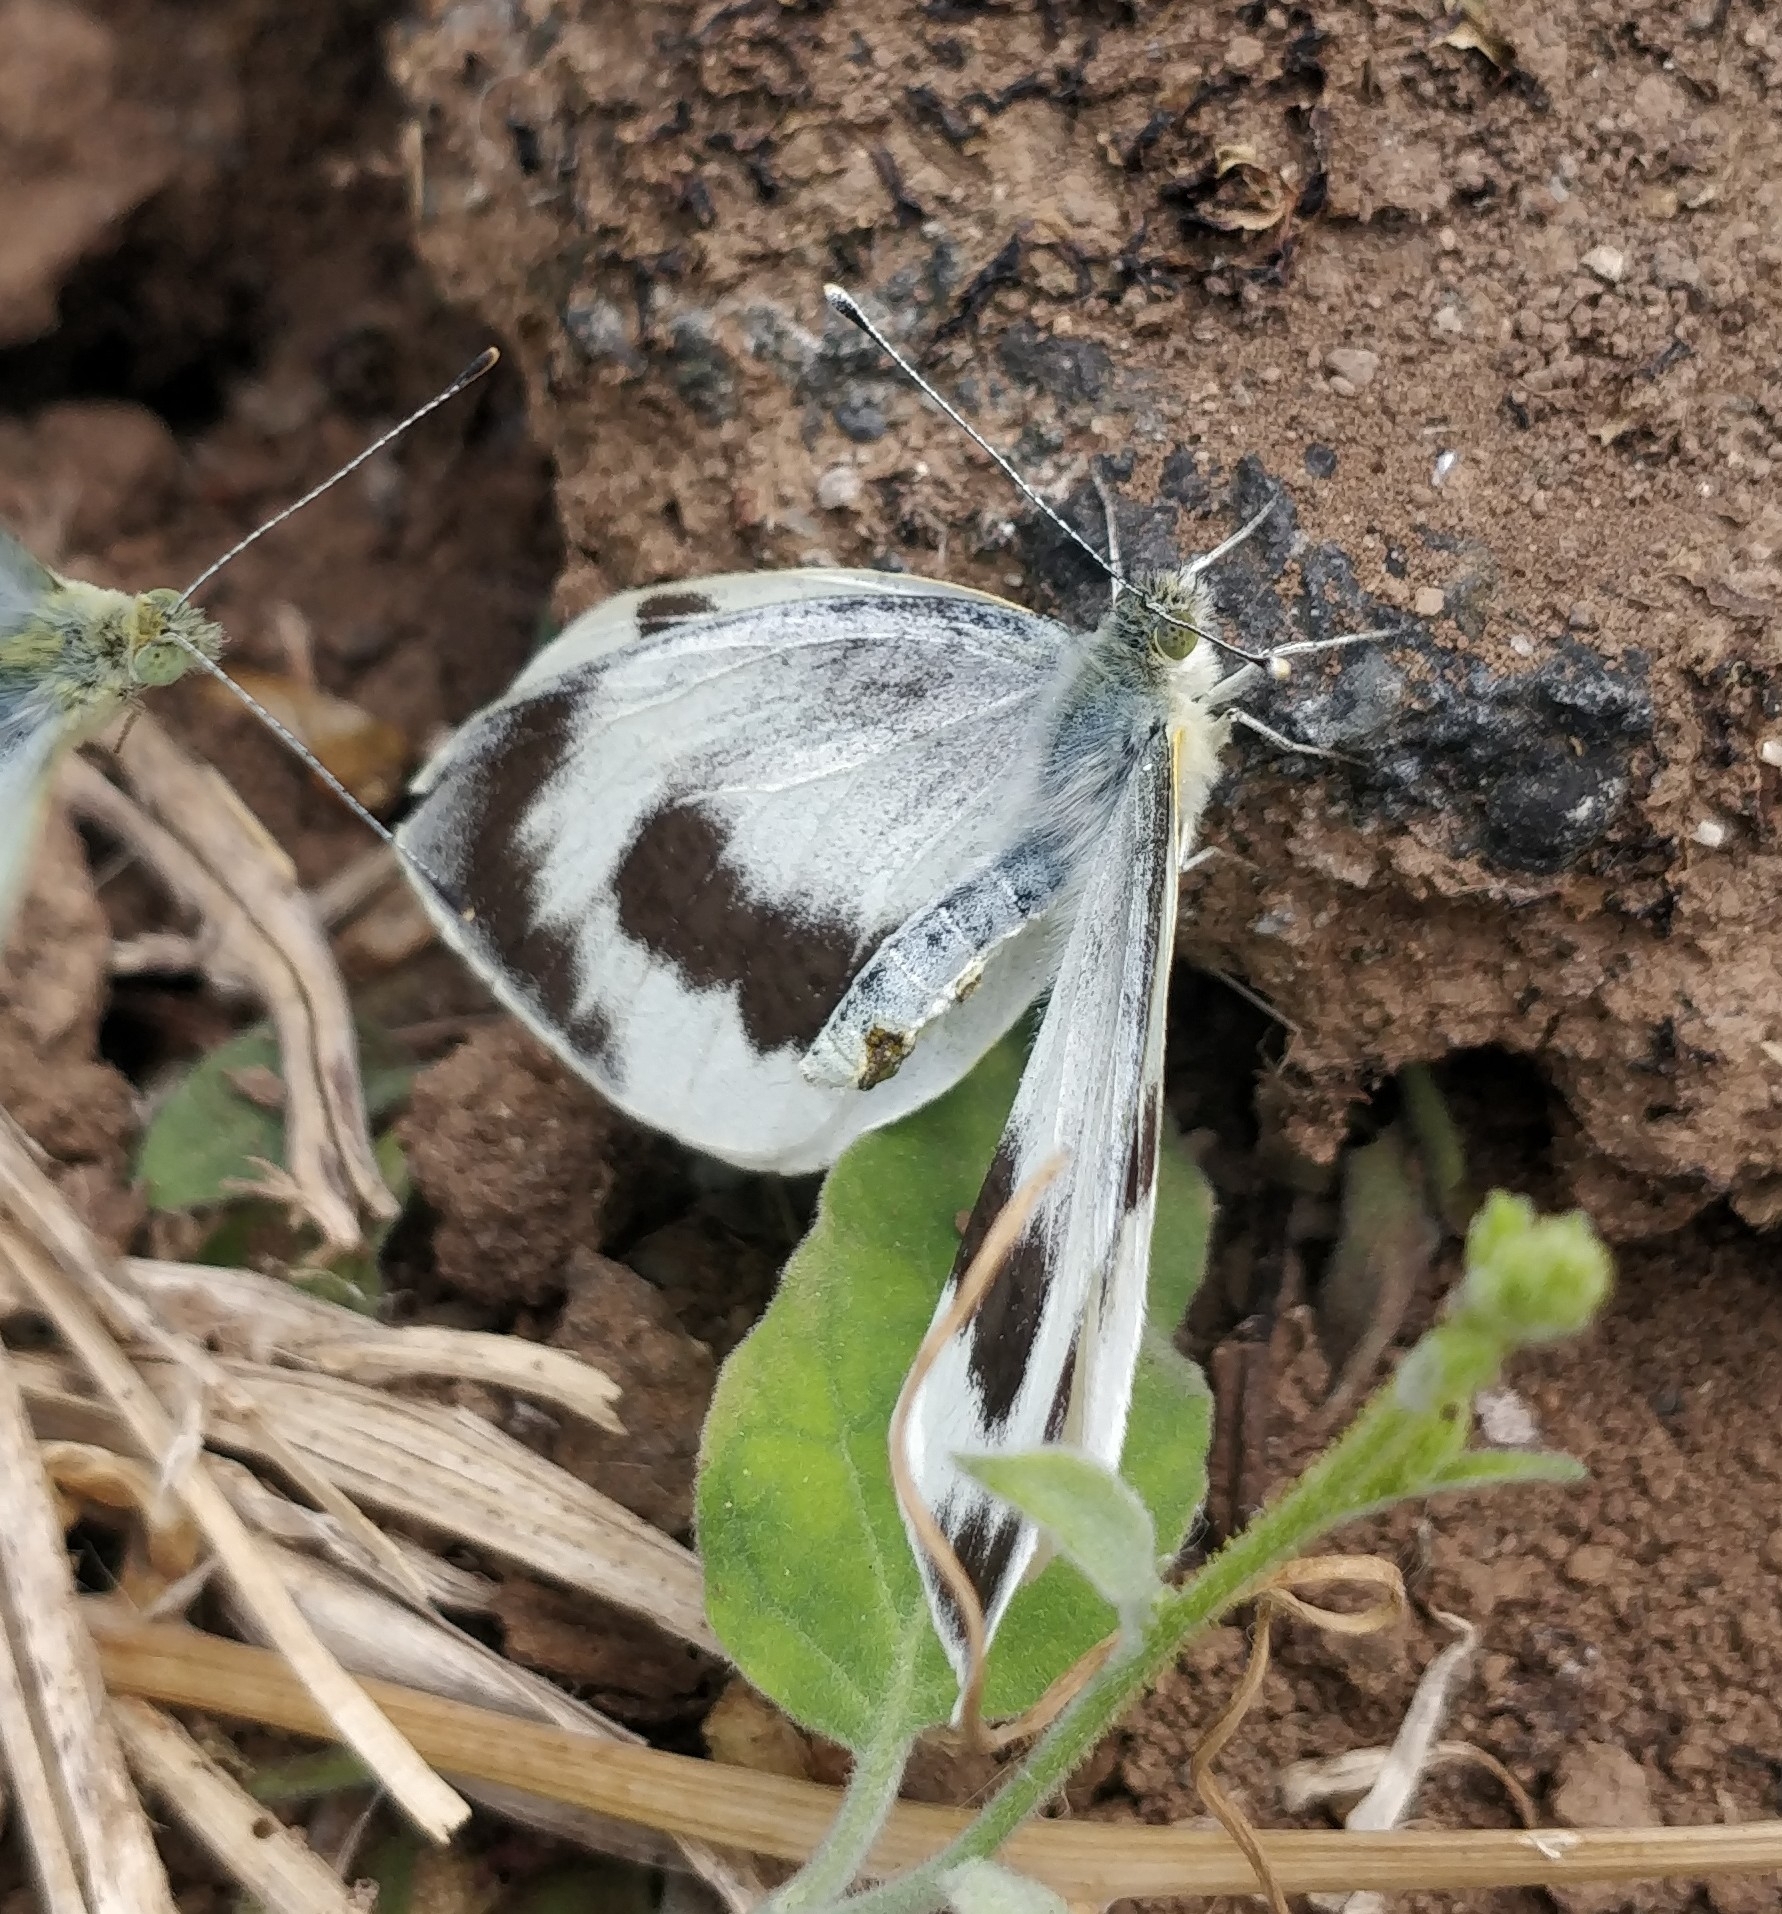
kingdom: Animalia
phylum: Arthropoda
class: Insecta
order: Lepidoptera
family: Pieridae
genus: Pieris
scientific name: Pieris cheiranthi
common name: Canary islands large white
